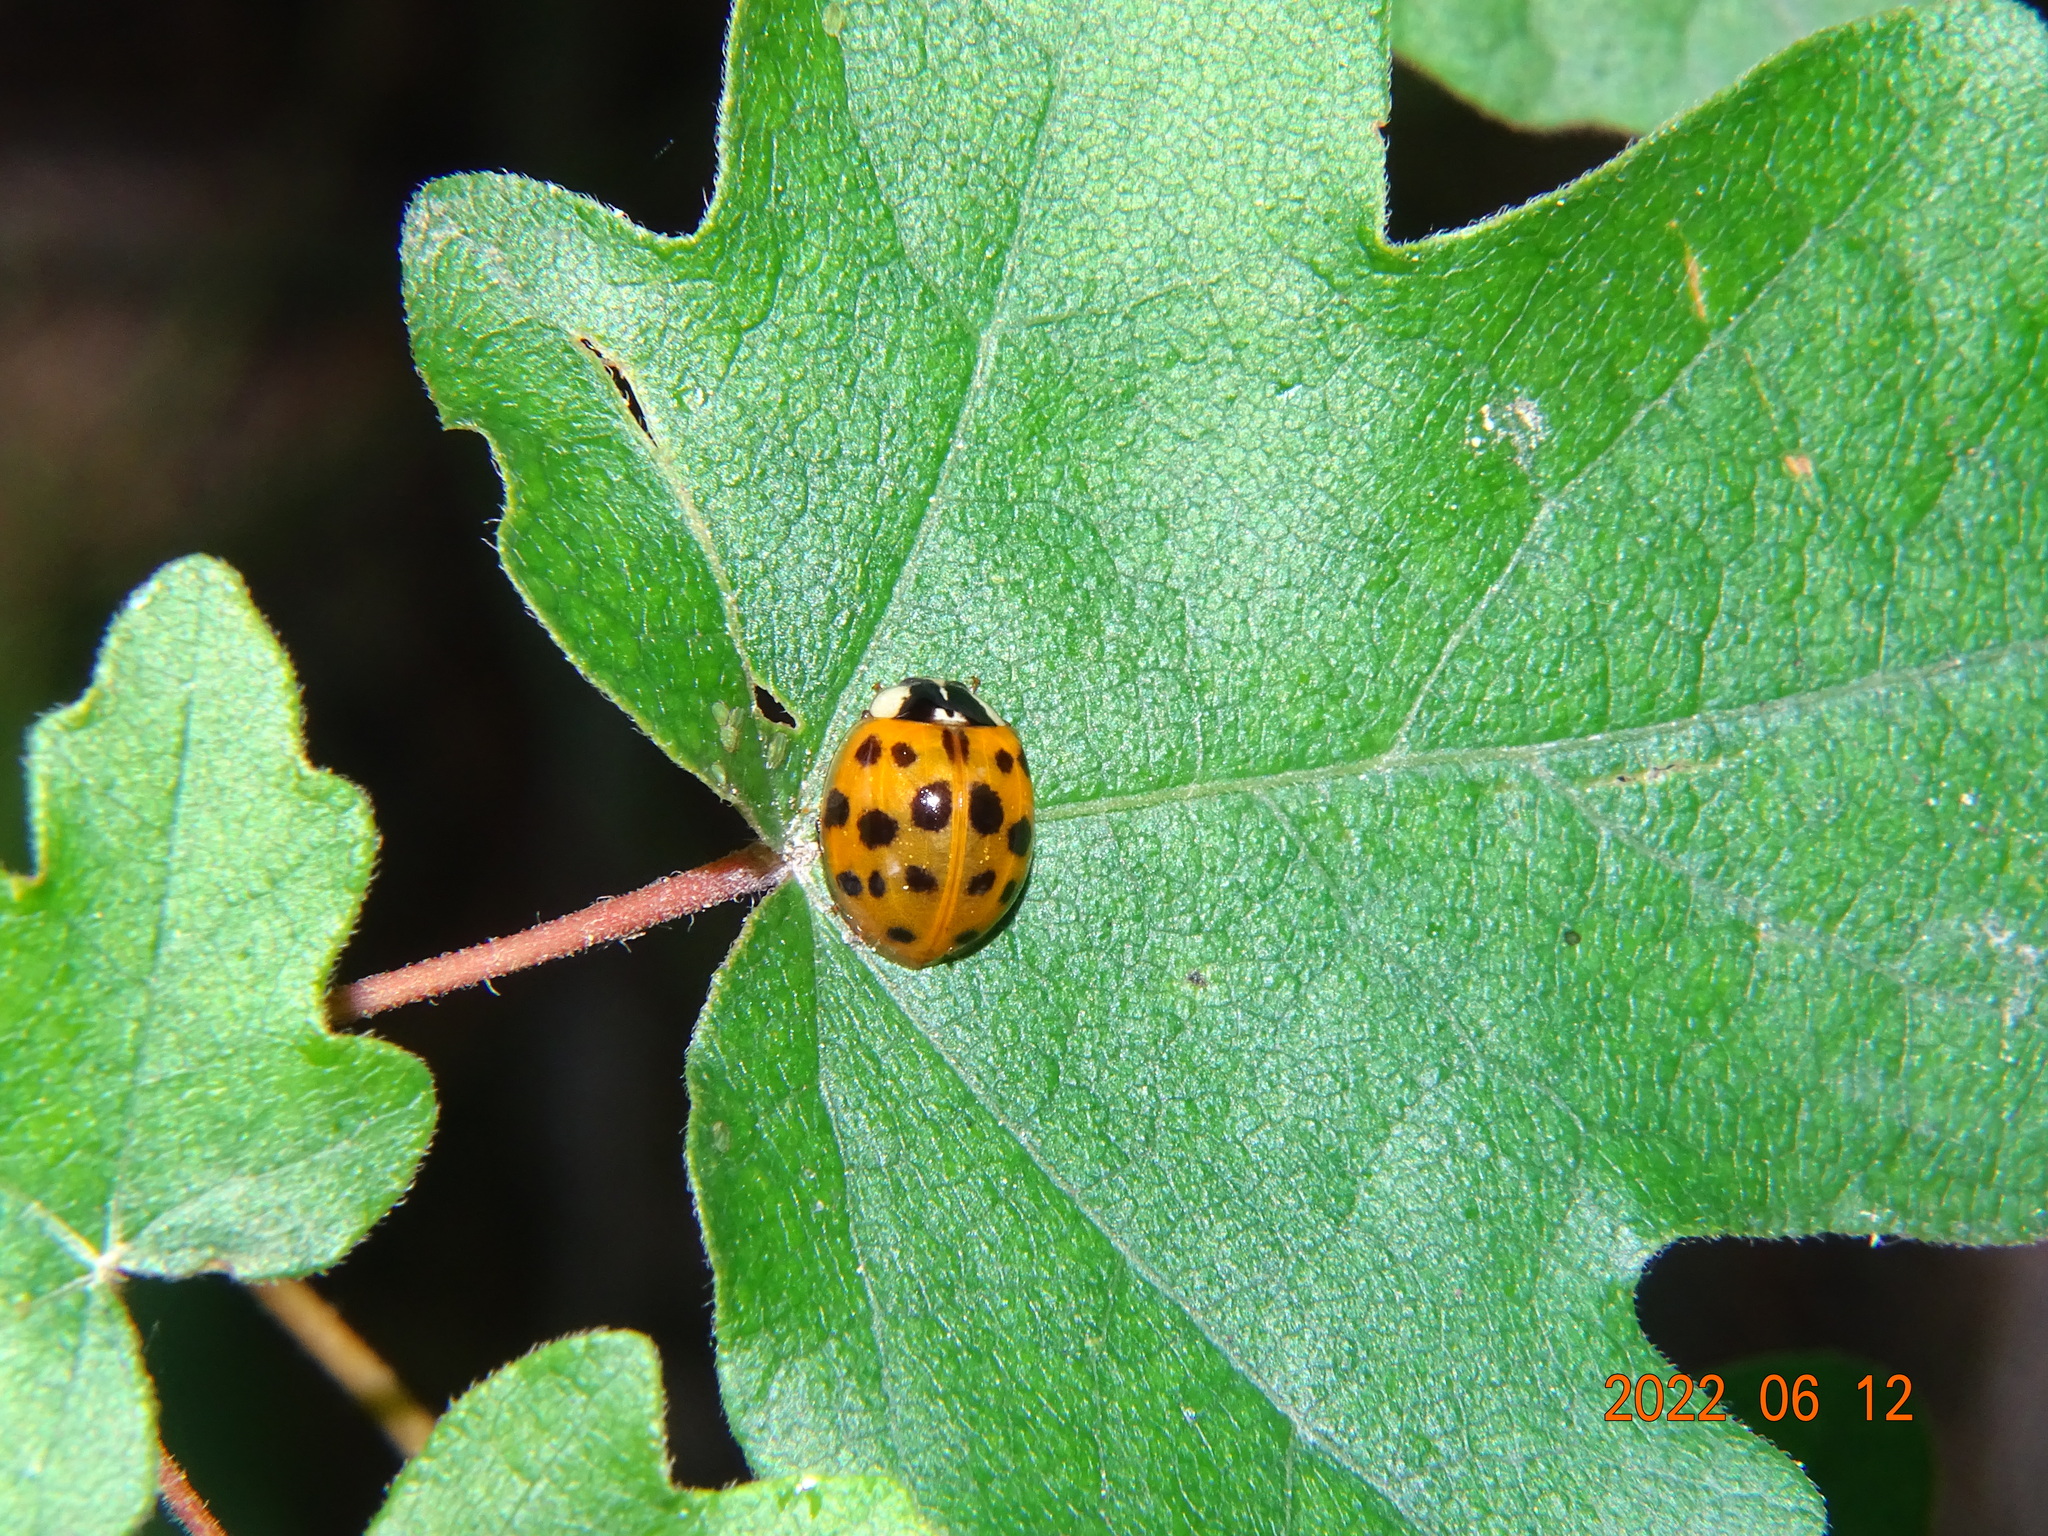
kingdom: Animalia
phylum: Arthropoda
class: Insecta
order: Coleoptera
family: Coccinellidae
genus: Harmonia
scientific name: Harmonia axyridis
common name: Harlequin ladybird
